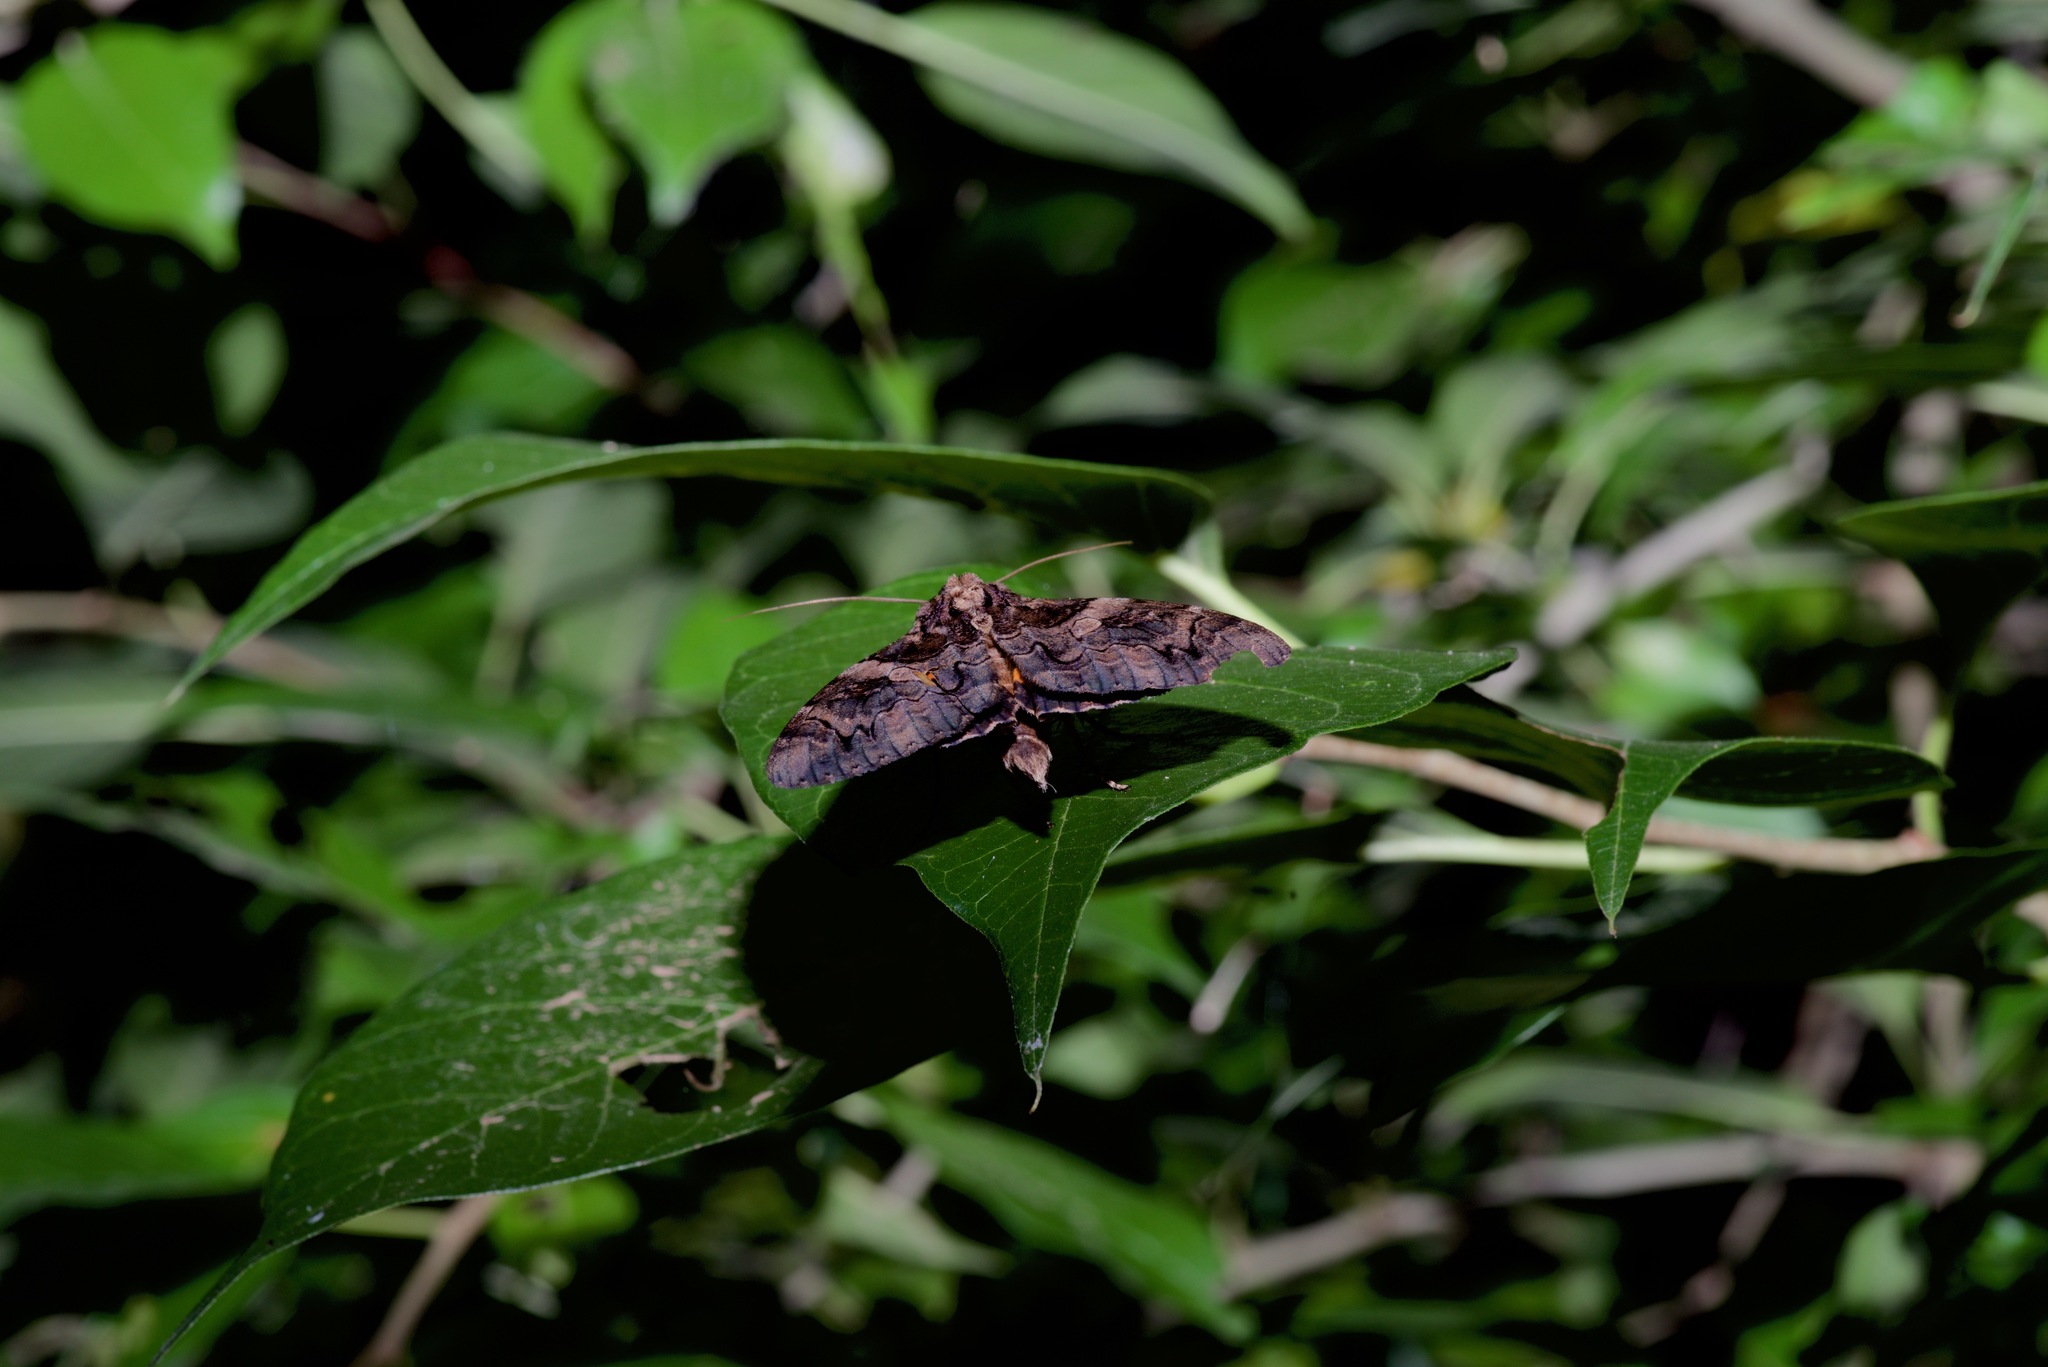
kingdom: Animalia
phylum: Arthropoda
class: Insecta
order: Lepidoptera
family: Erebidae
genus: Catocala
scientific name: Catocala piatrix
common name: The penitent underwing
